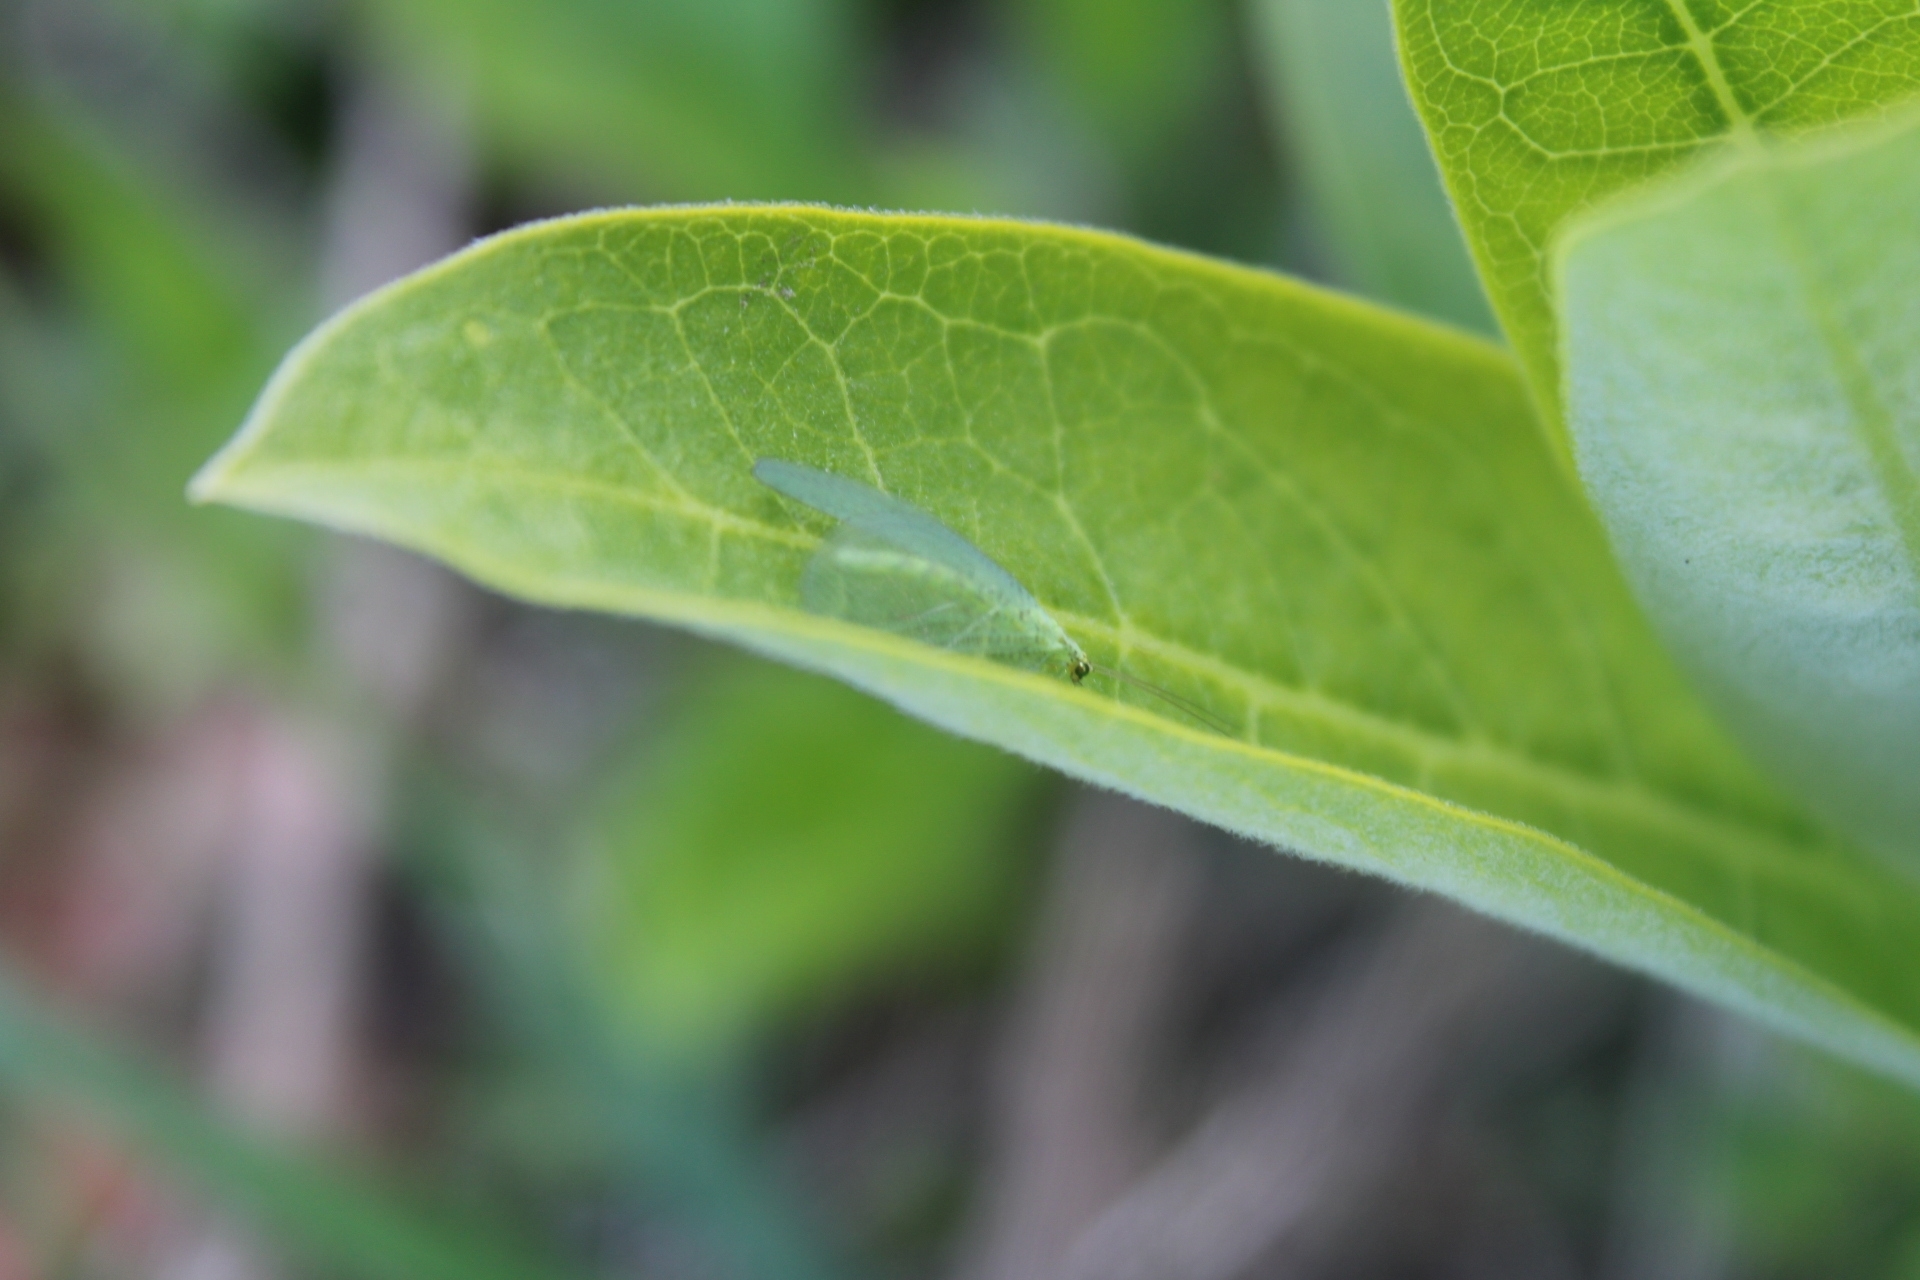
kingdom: Animalia
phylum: Arthropoda
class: Insecta
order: Neuroptera
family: Chrysopidae
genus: Chrysopa
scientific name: Chrysopa
